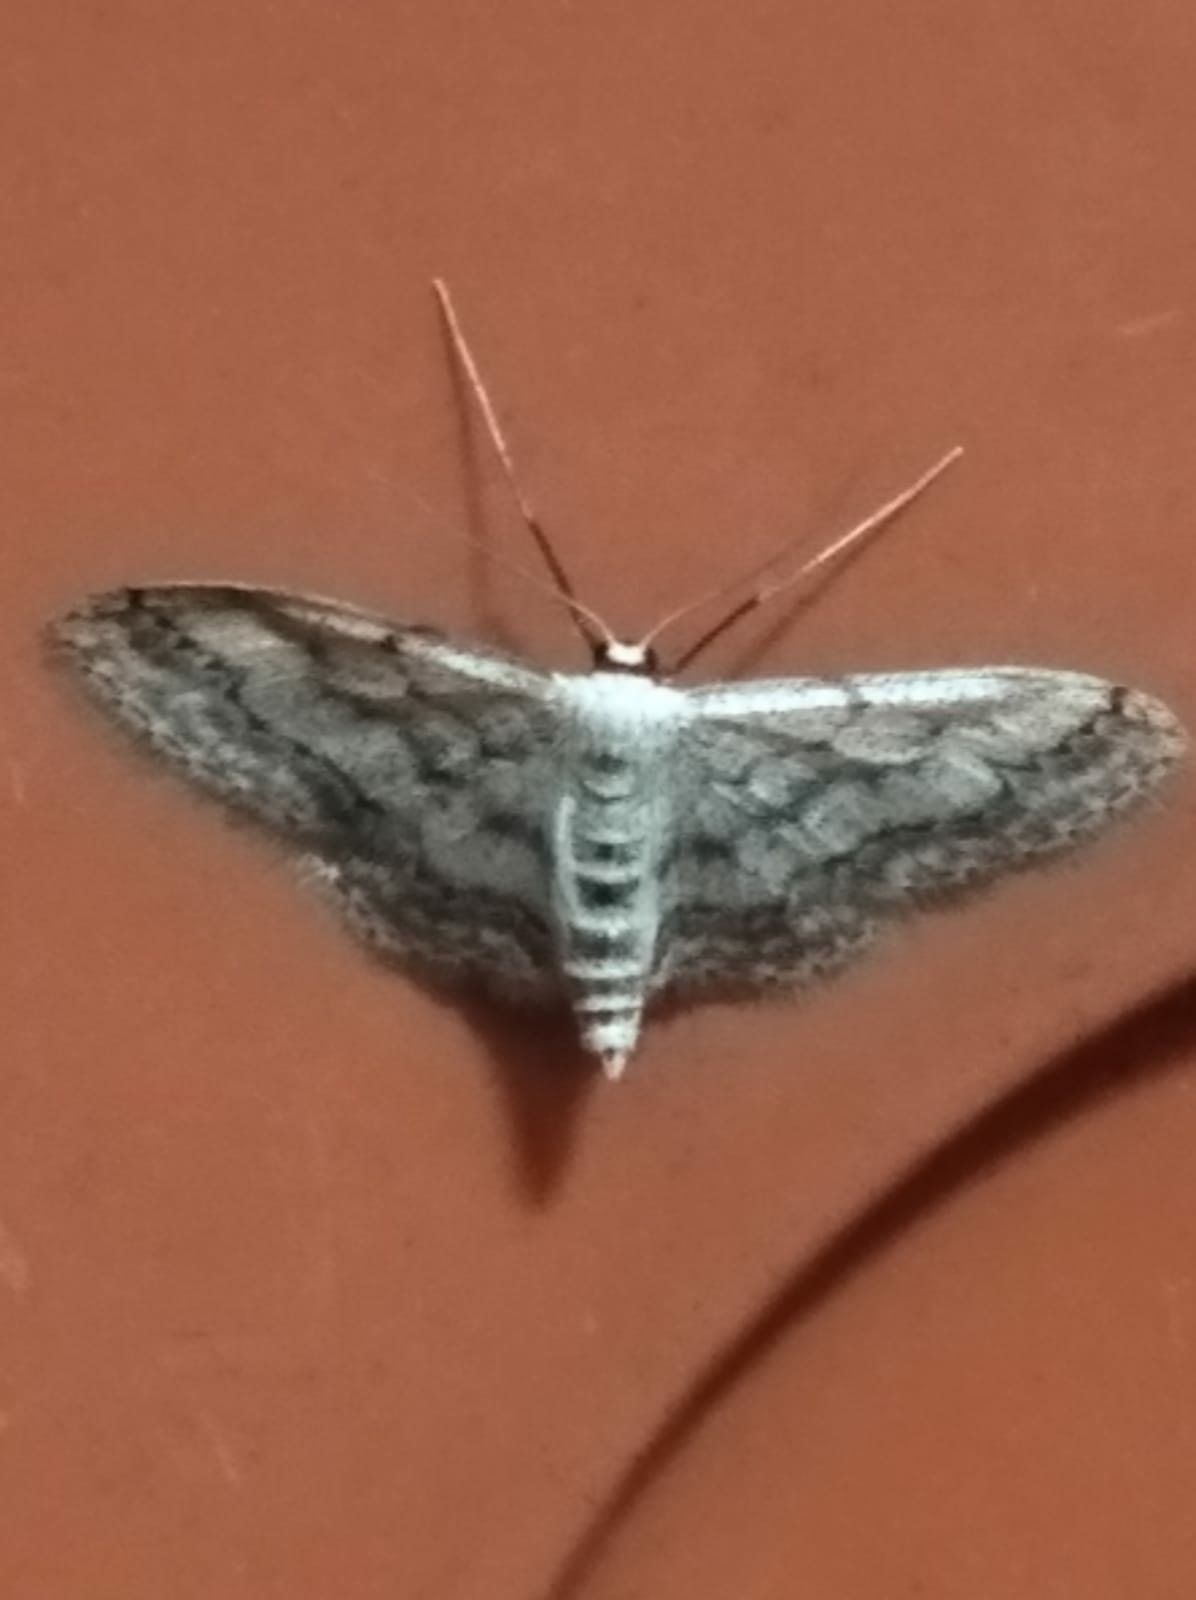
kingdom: Animalia
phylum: Arthropoda
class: Insecta
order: Lepidoptera
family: Geometridae
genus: Idaea
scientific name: Idaea seriata
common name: Small dusty wave
